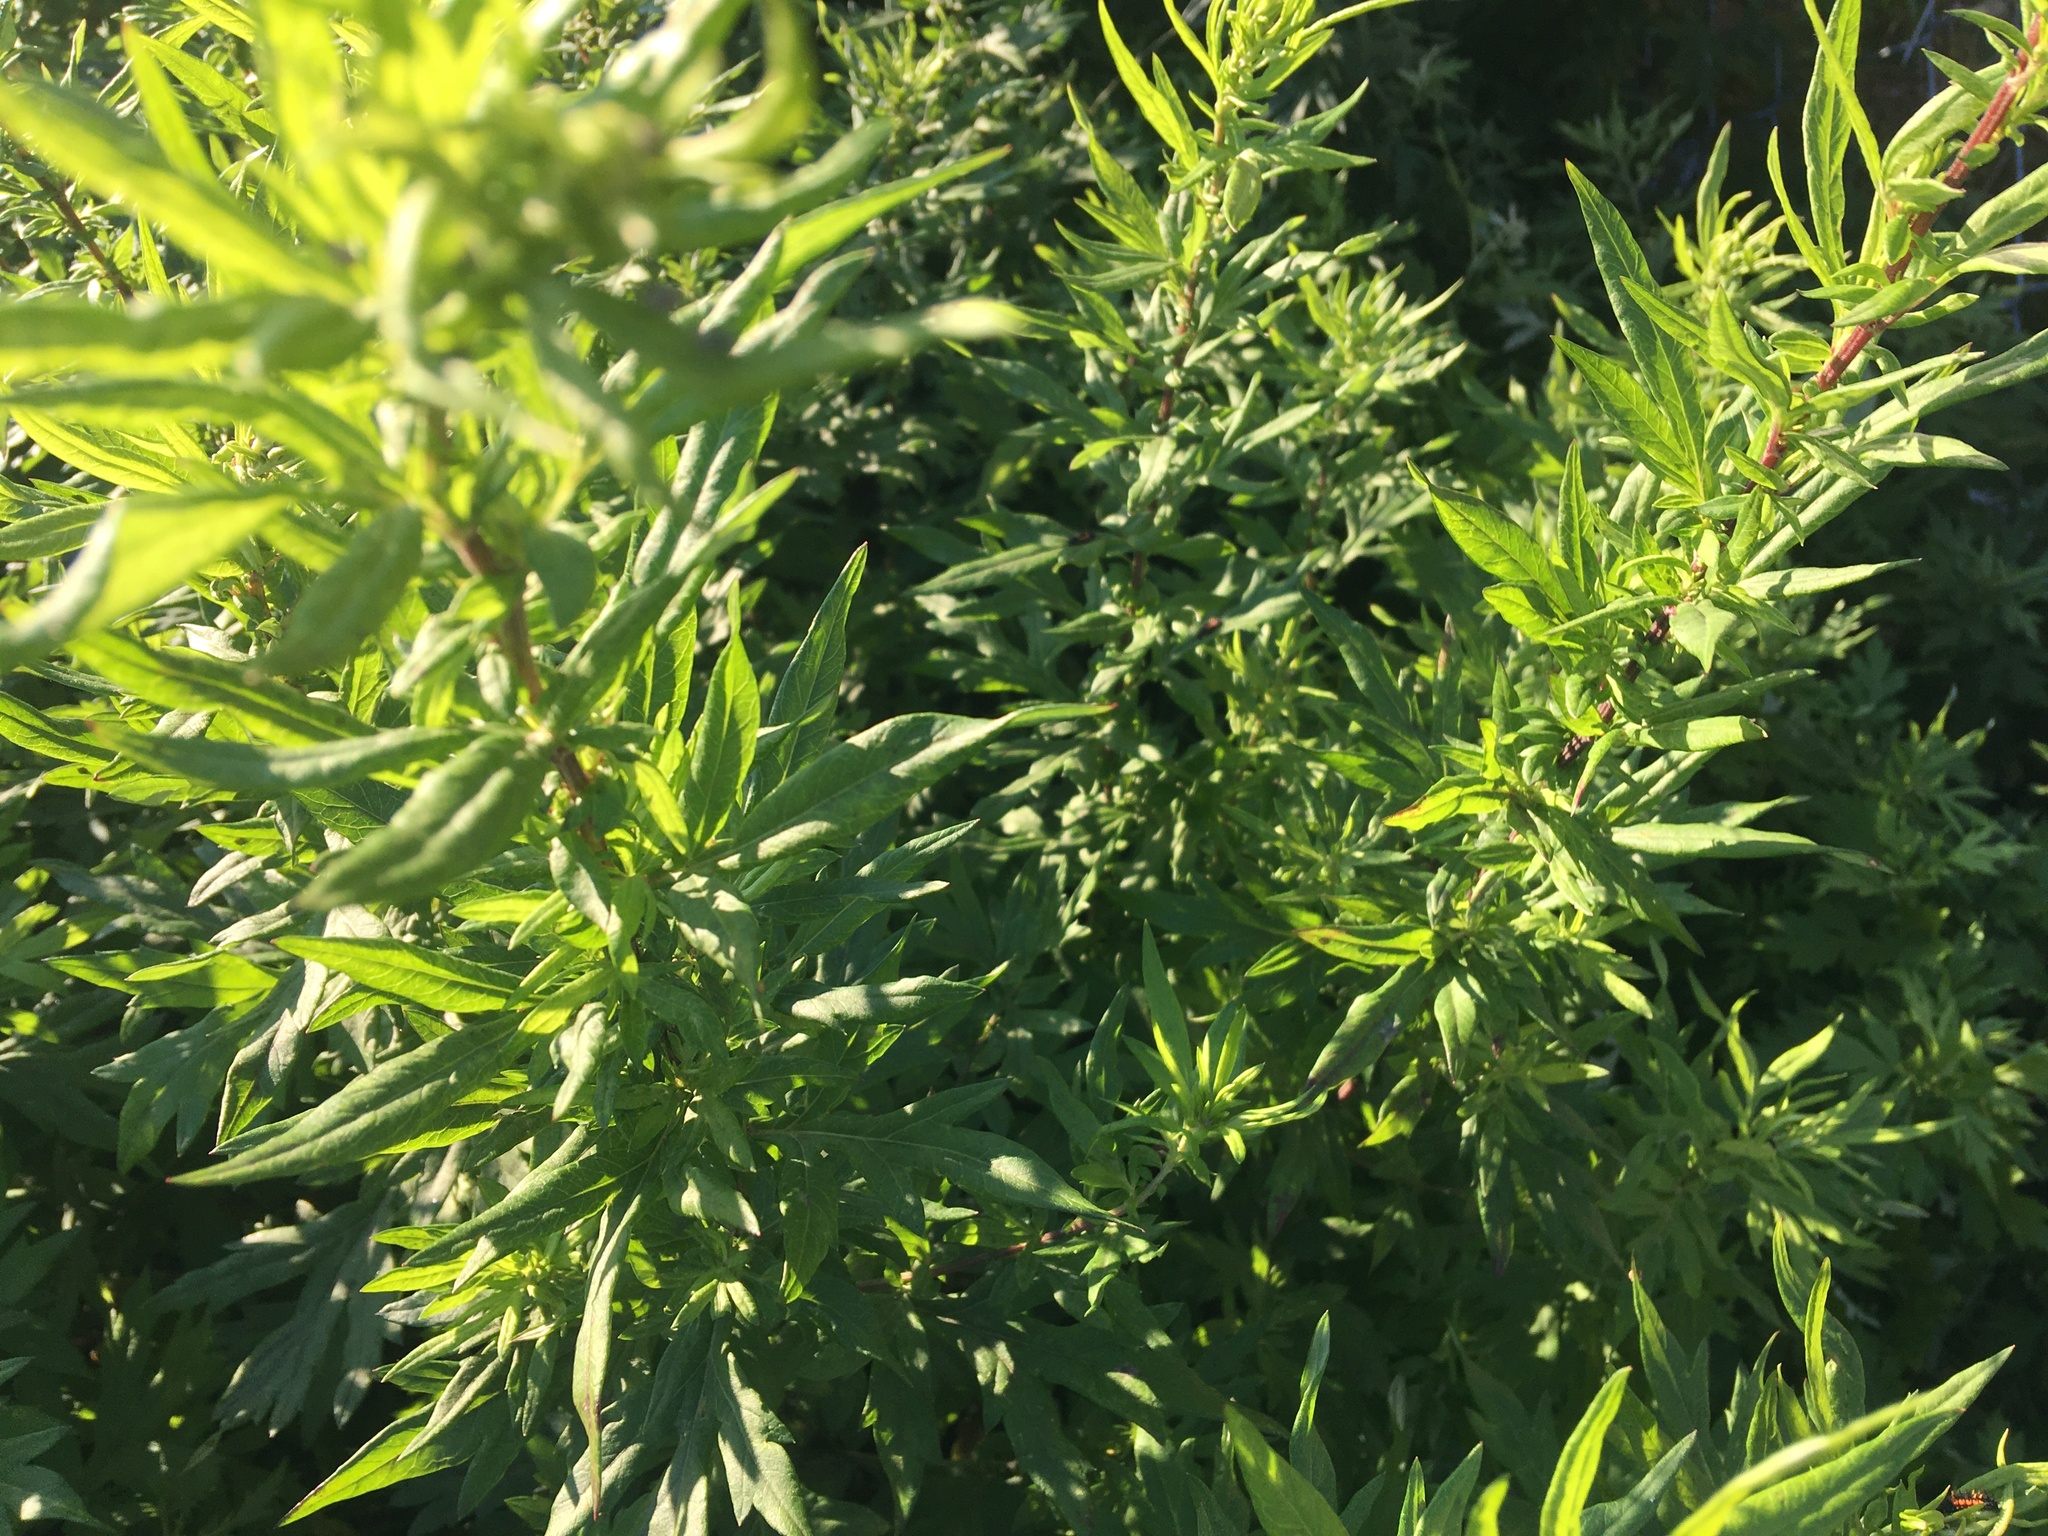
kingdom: Plantae
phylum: Tracheophyta
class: Magnoliopsida
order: Asterales
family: Asteraceae
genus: Artemisia
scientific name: Artemisia vulgaris
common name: Mugwort
